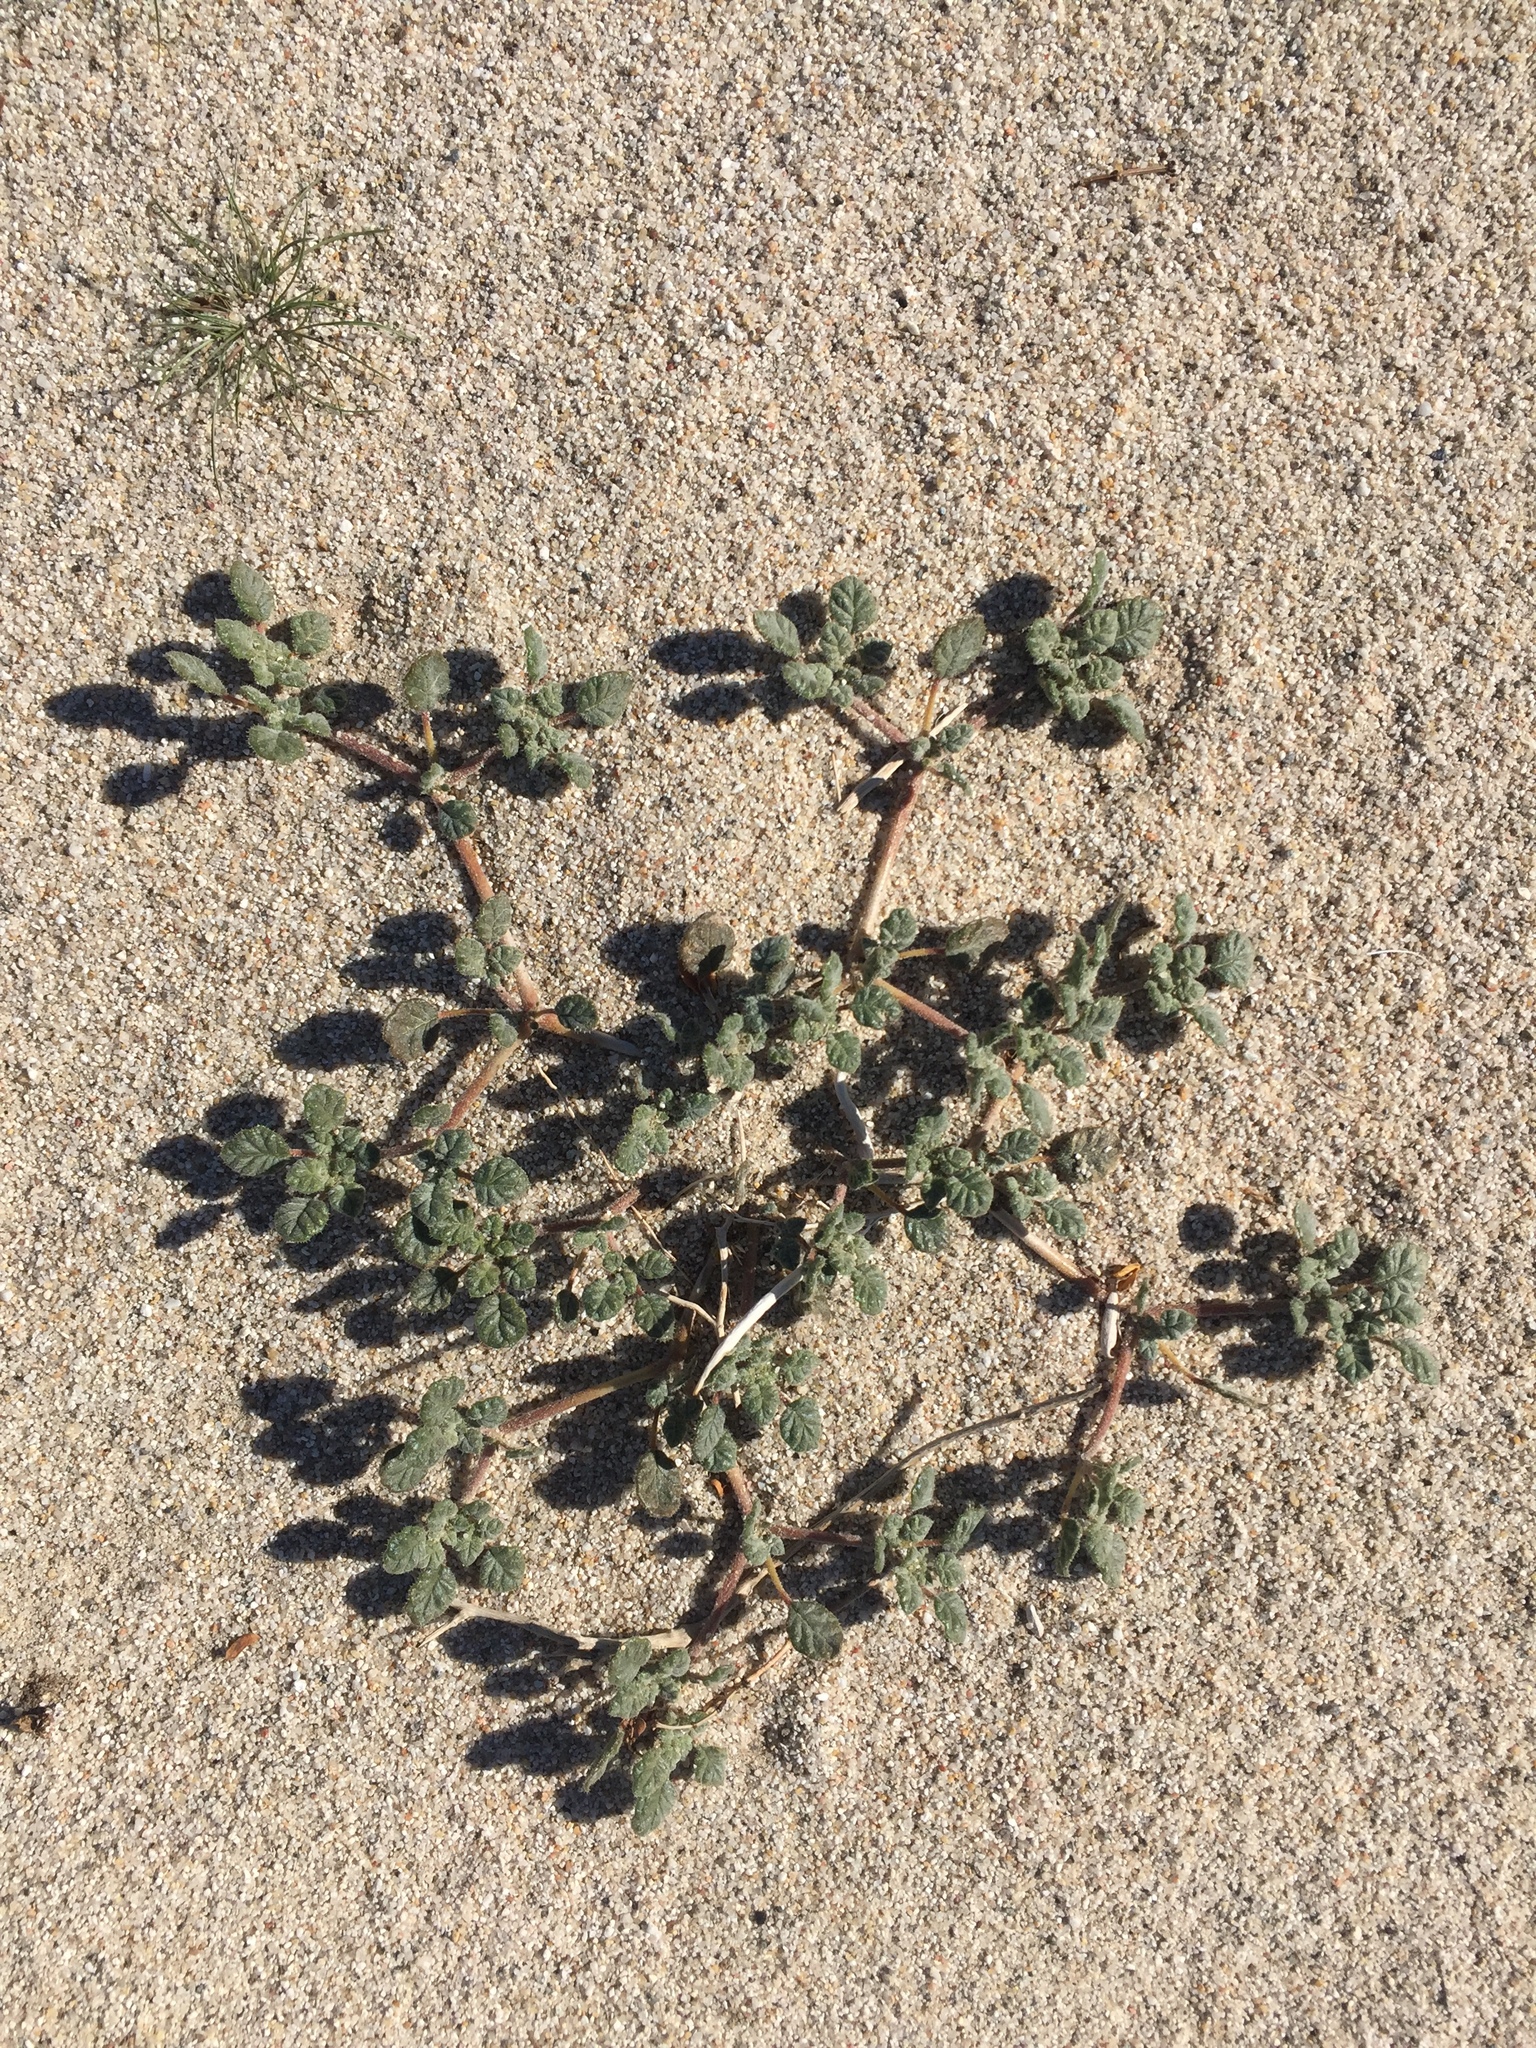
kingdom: Plantae
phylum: Tracheophyta
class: Magnoliopsida
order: Boraginales
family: Ehretiaceae
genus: Tiquilia
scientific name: Tiquilia palmeri
